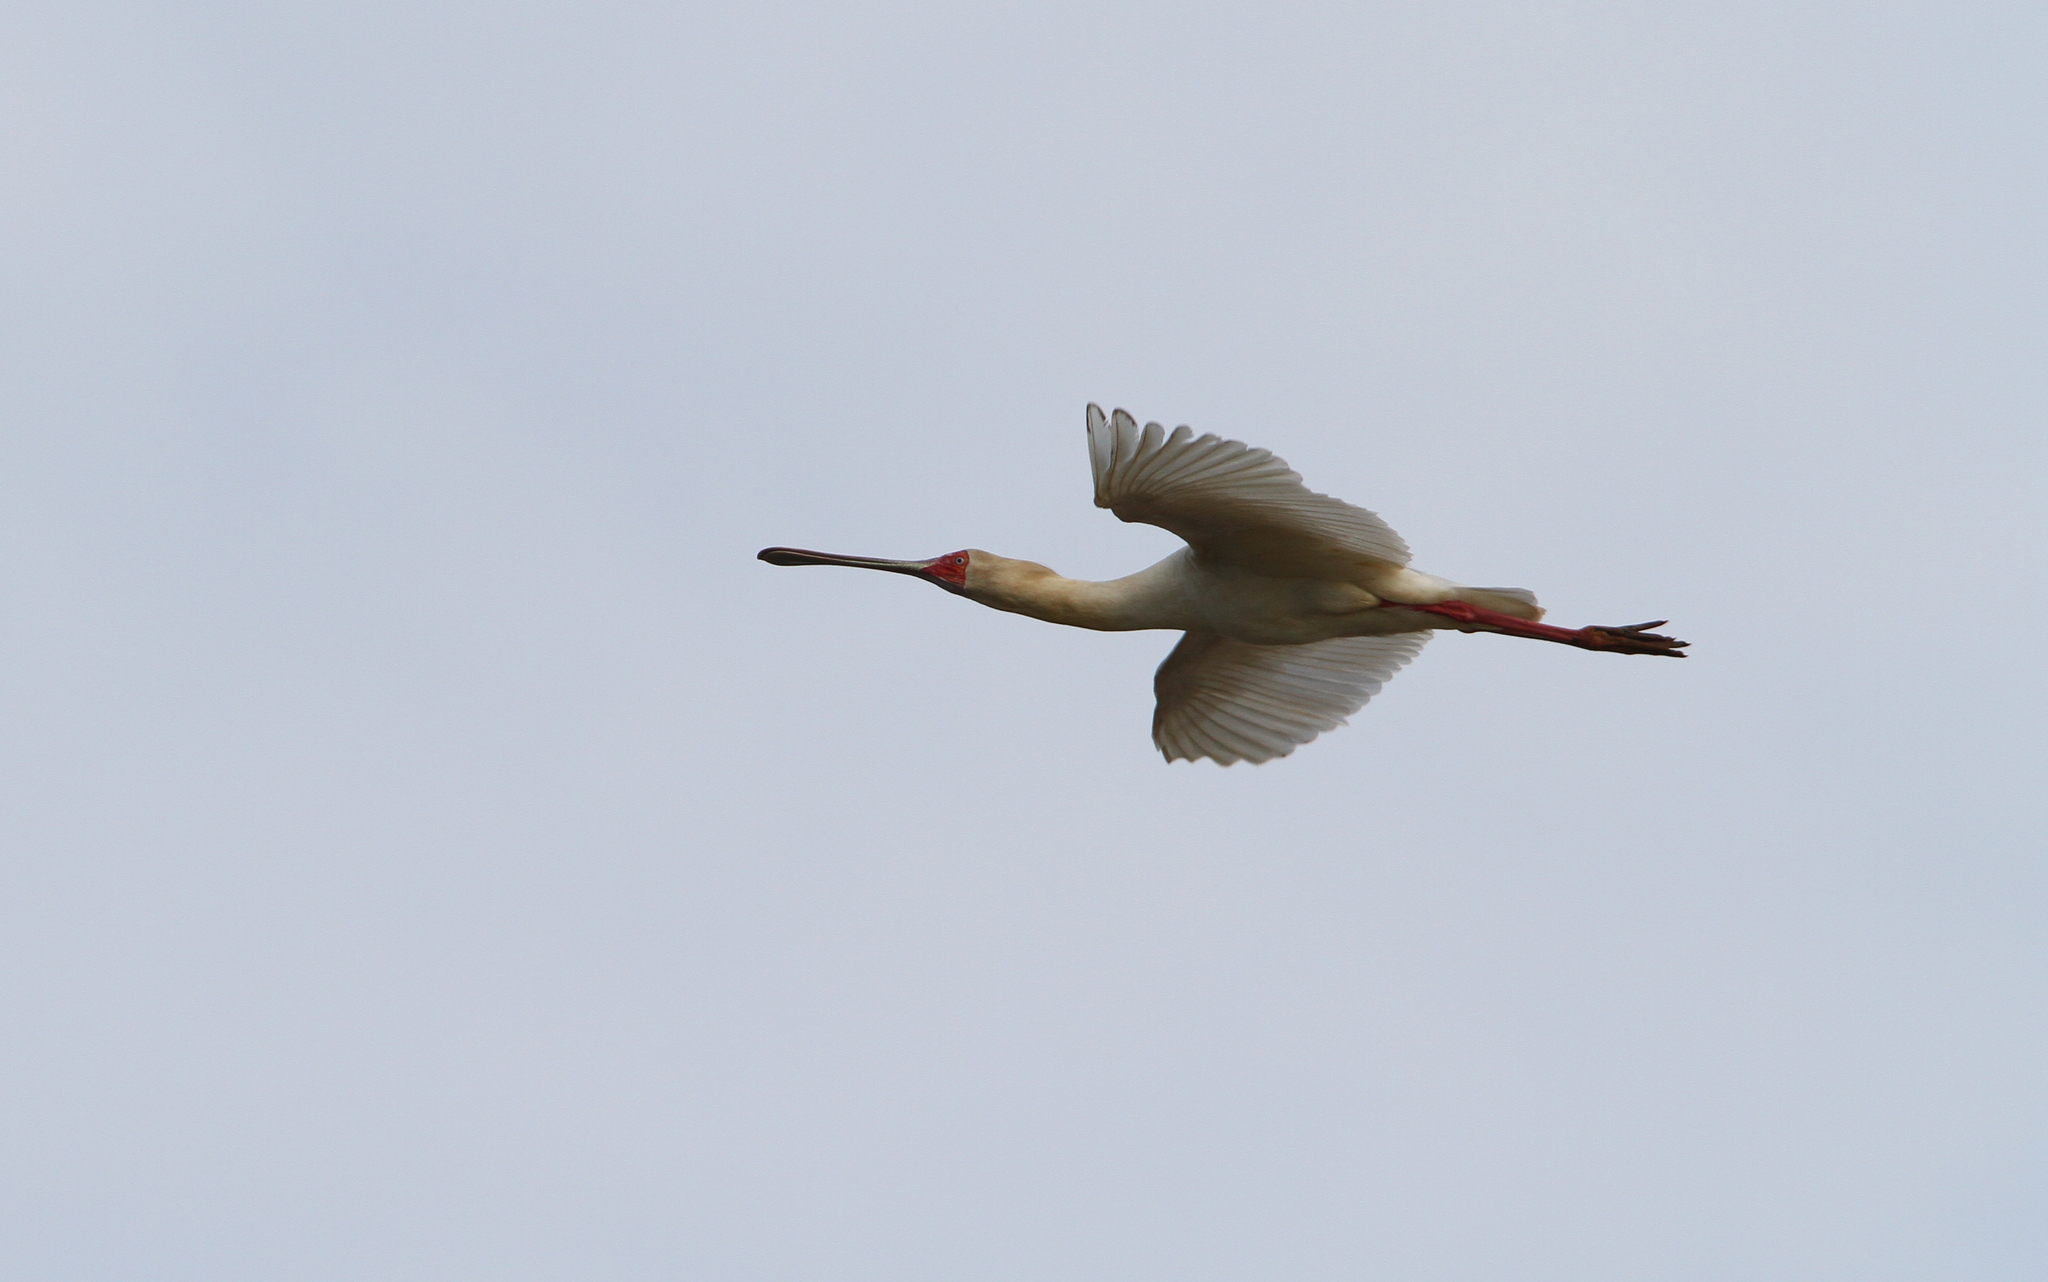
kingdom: Animalia
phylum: Chordata
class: Aves
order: Pelecaniformes
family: Threskiornithidae
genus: Platalea
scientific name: Platalea alba
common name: African spoonbill
